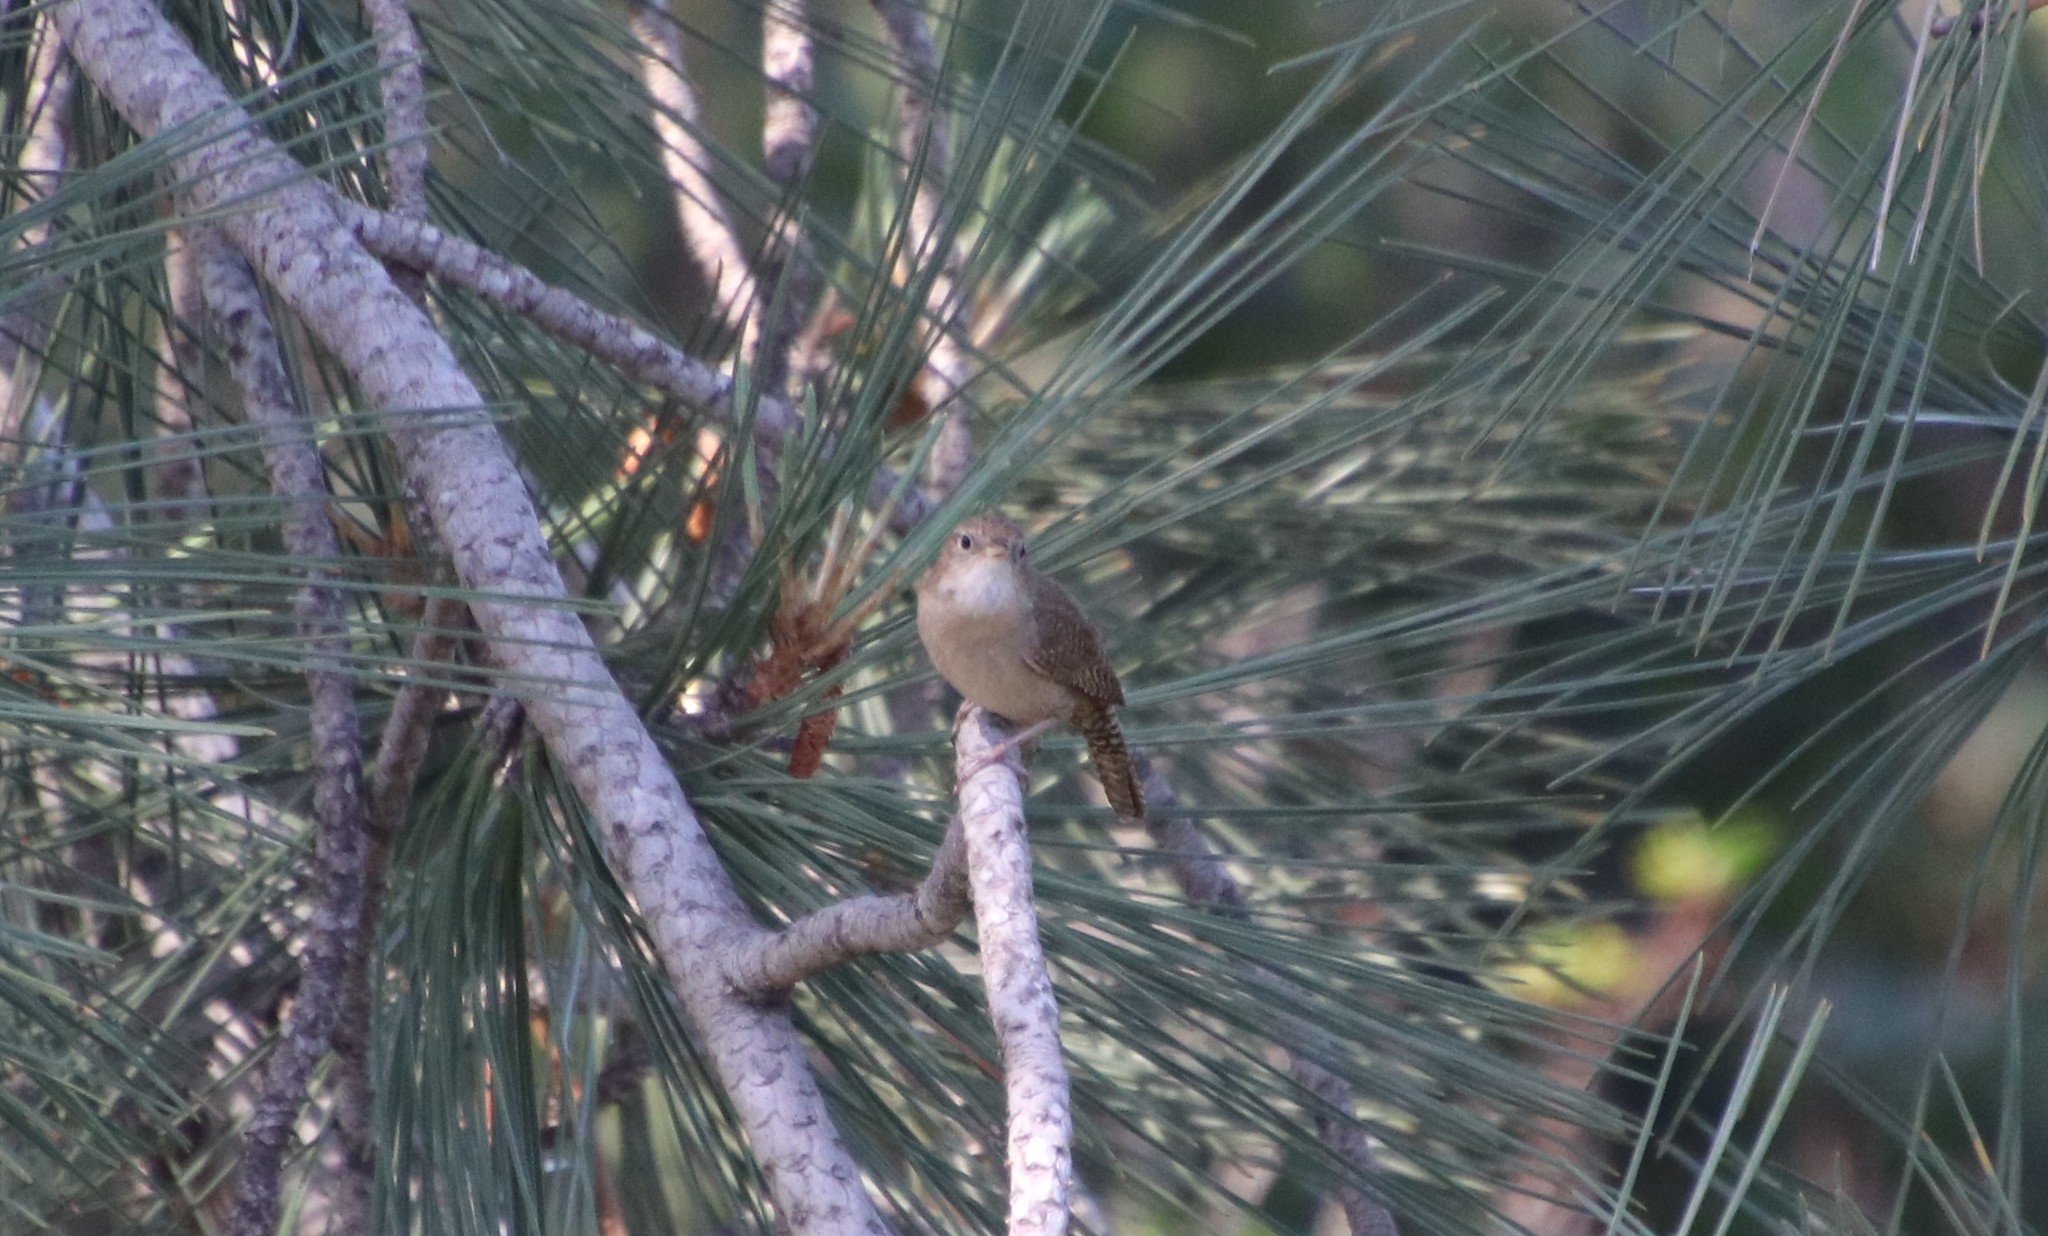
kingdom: Animalia
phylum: Chordata
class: Aves
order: Passeriformes
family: Troglodytidae
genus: Troglodytes
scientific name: Troglodytes aedon
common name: House wren
